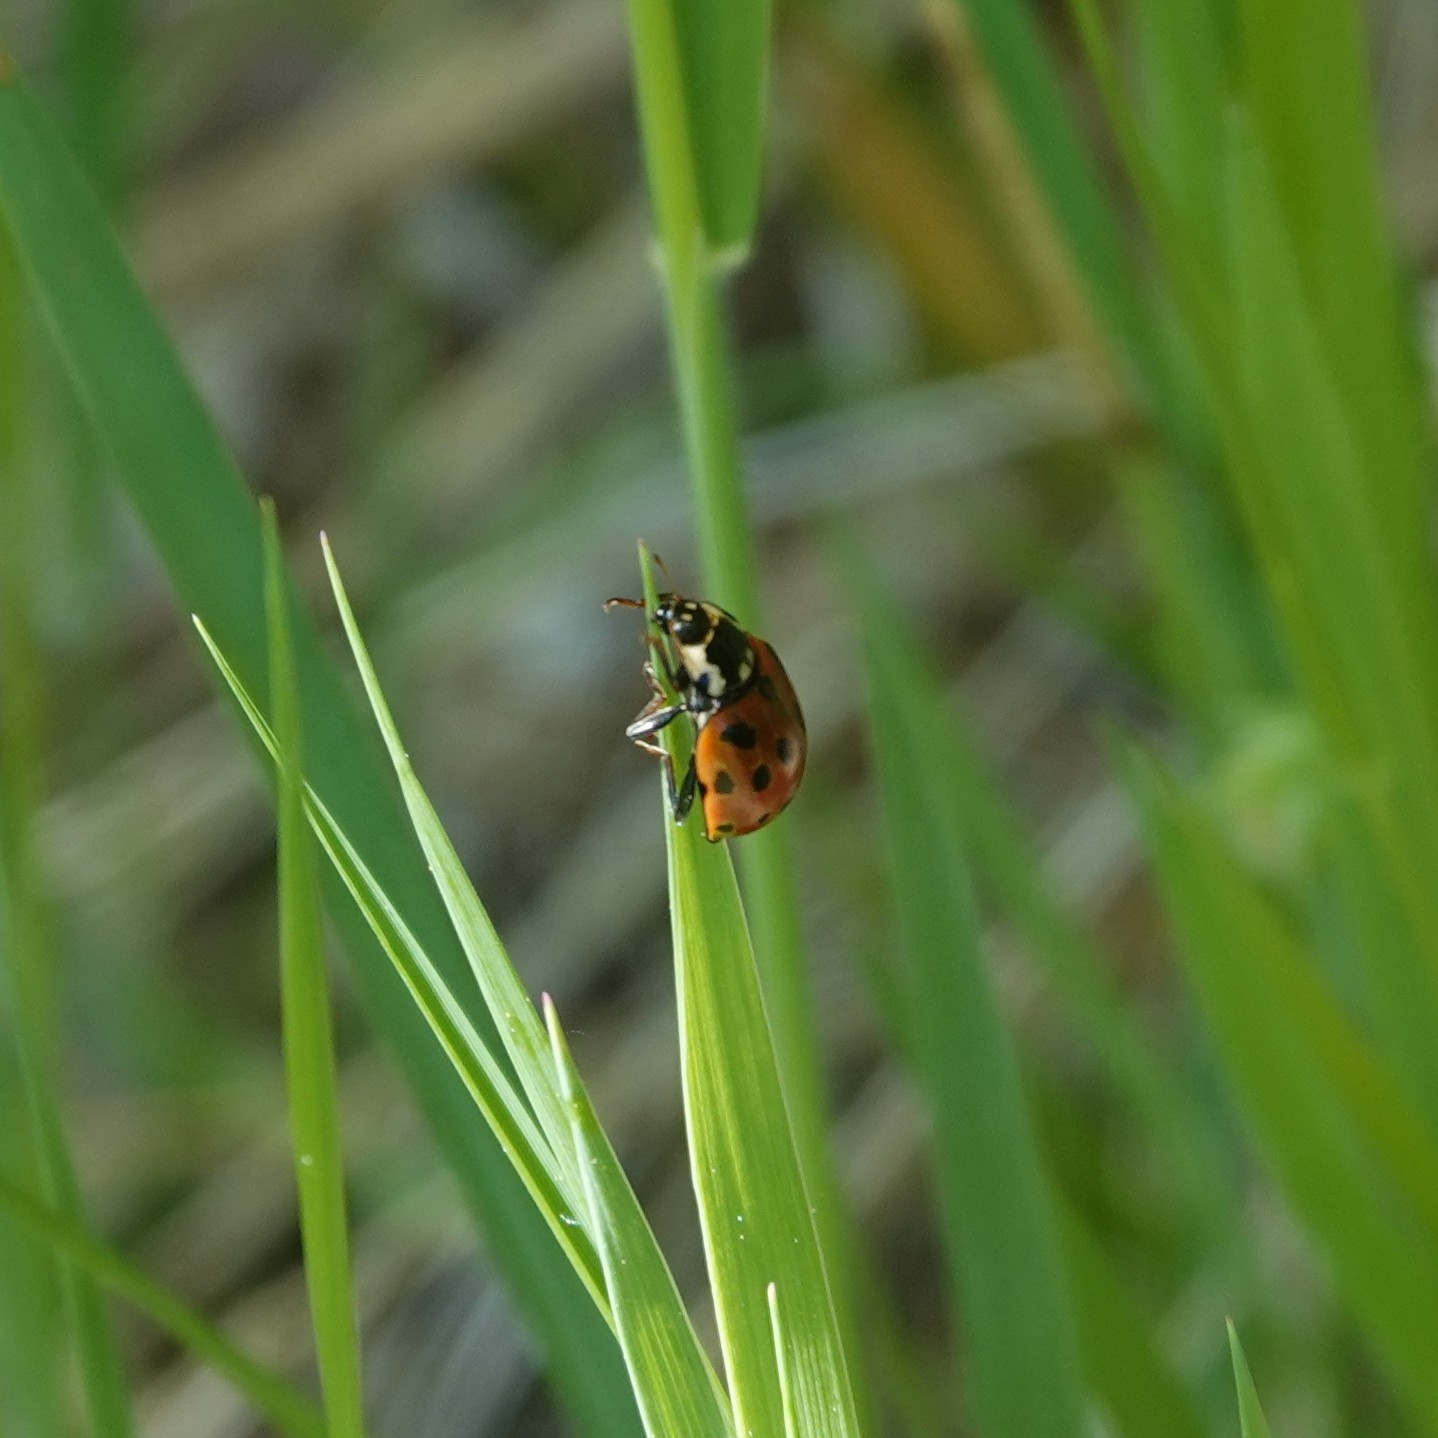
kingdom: Animalia
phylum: Arthropoda
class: Insecta
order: Coleoptera
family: Coccinellidae
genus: Anatis
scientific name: Anatis ocellata
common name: Eyed ladybird
